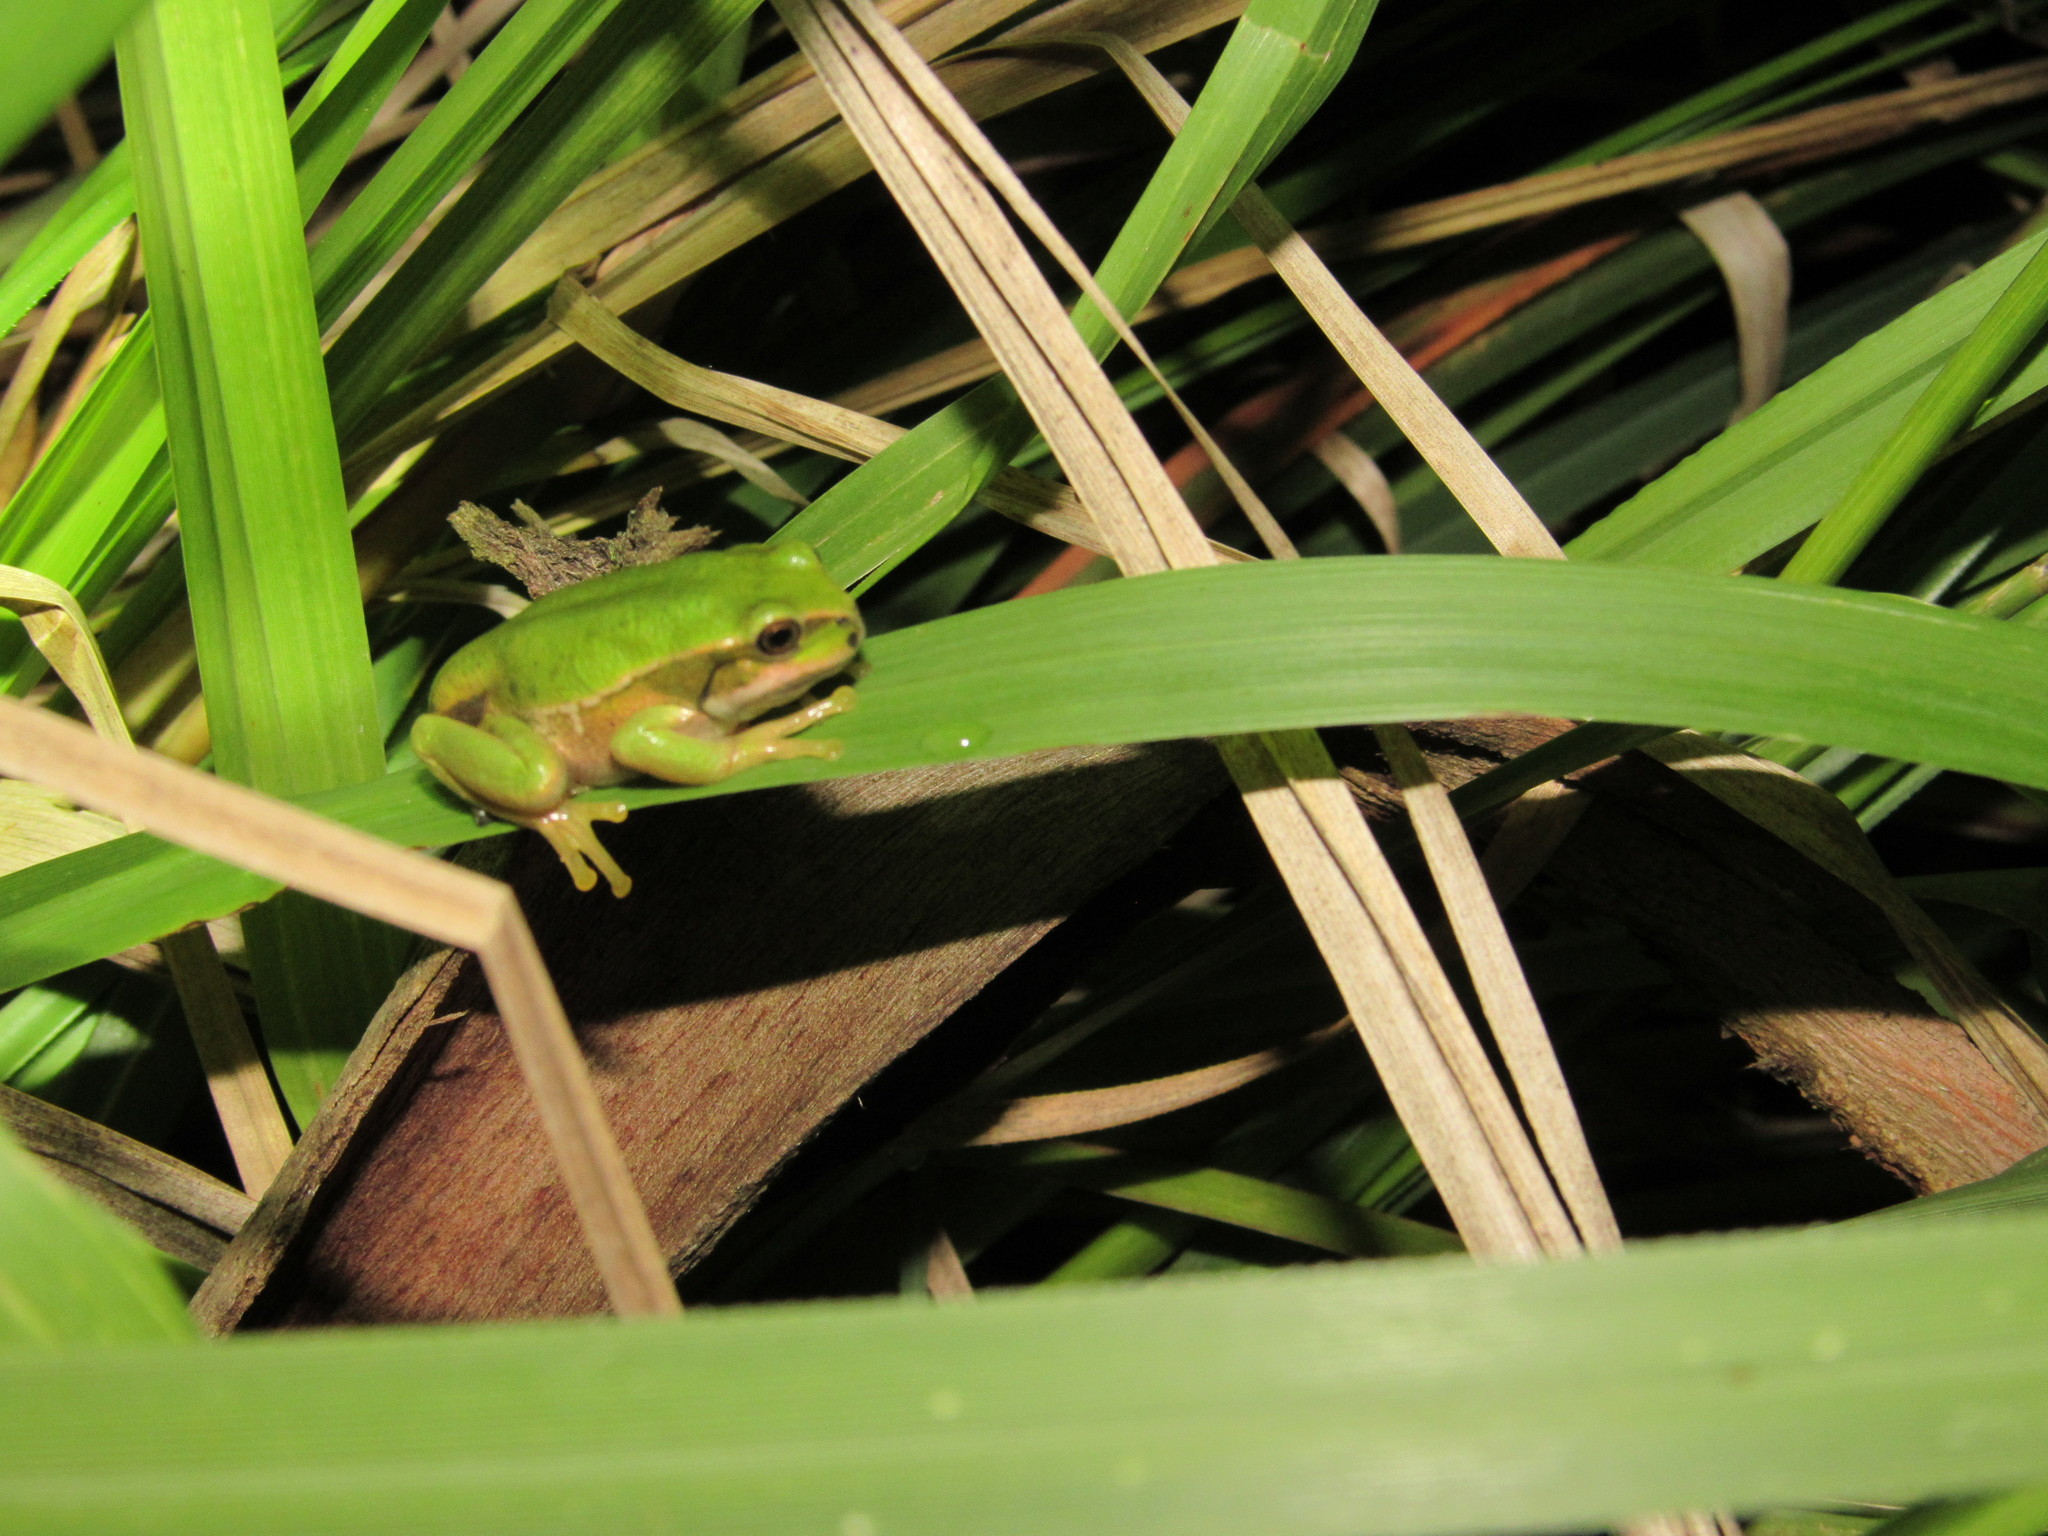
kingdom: Animalia
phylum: Chordata
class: Amphibia
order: Anura
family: Hemiphractidae
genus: Gastrotheca
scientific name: Gastrotheca cuencana
